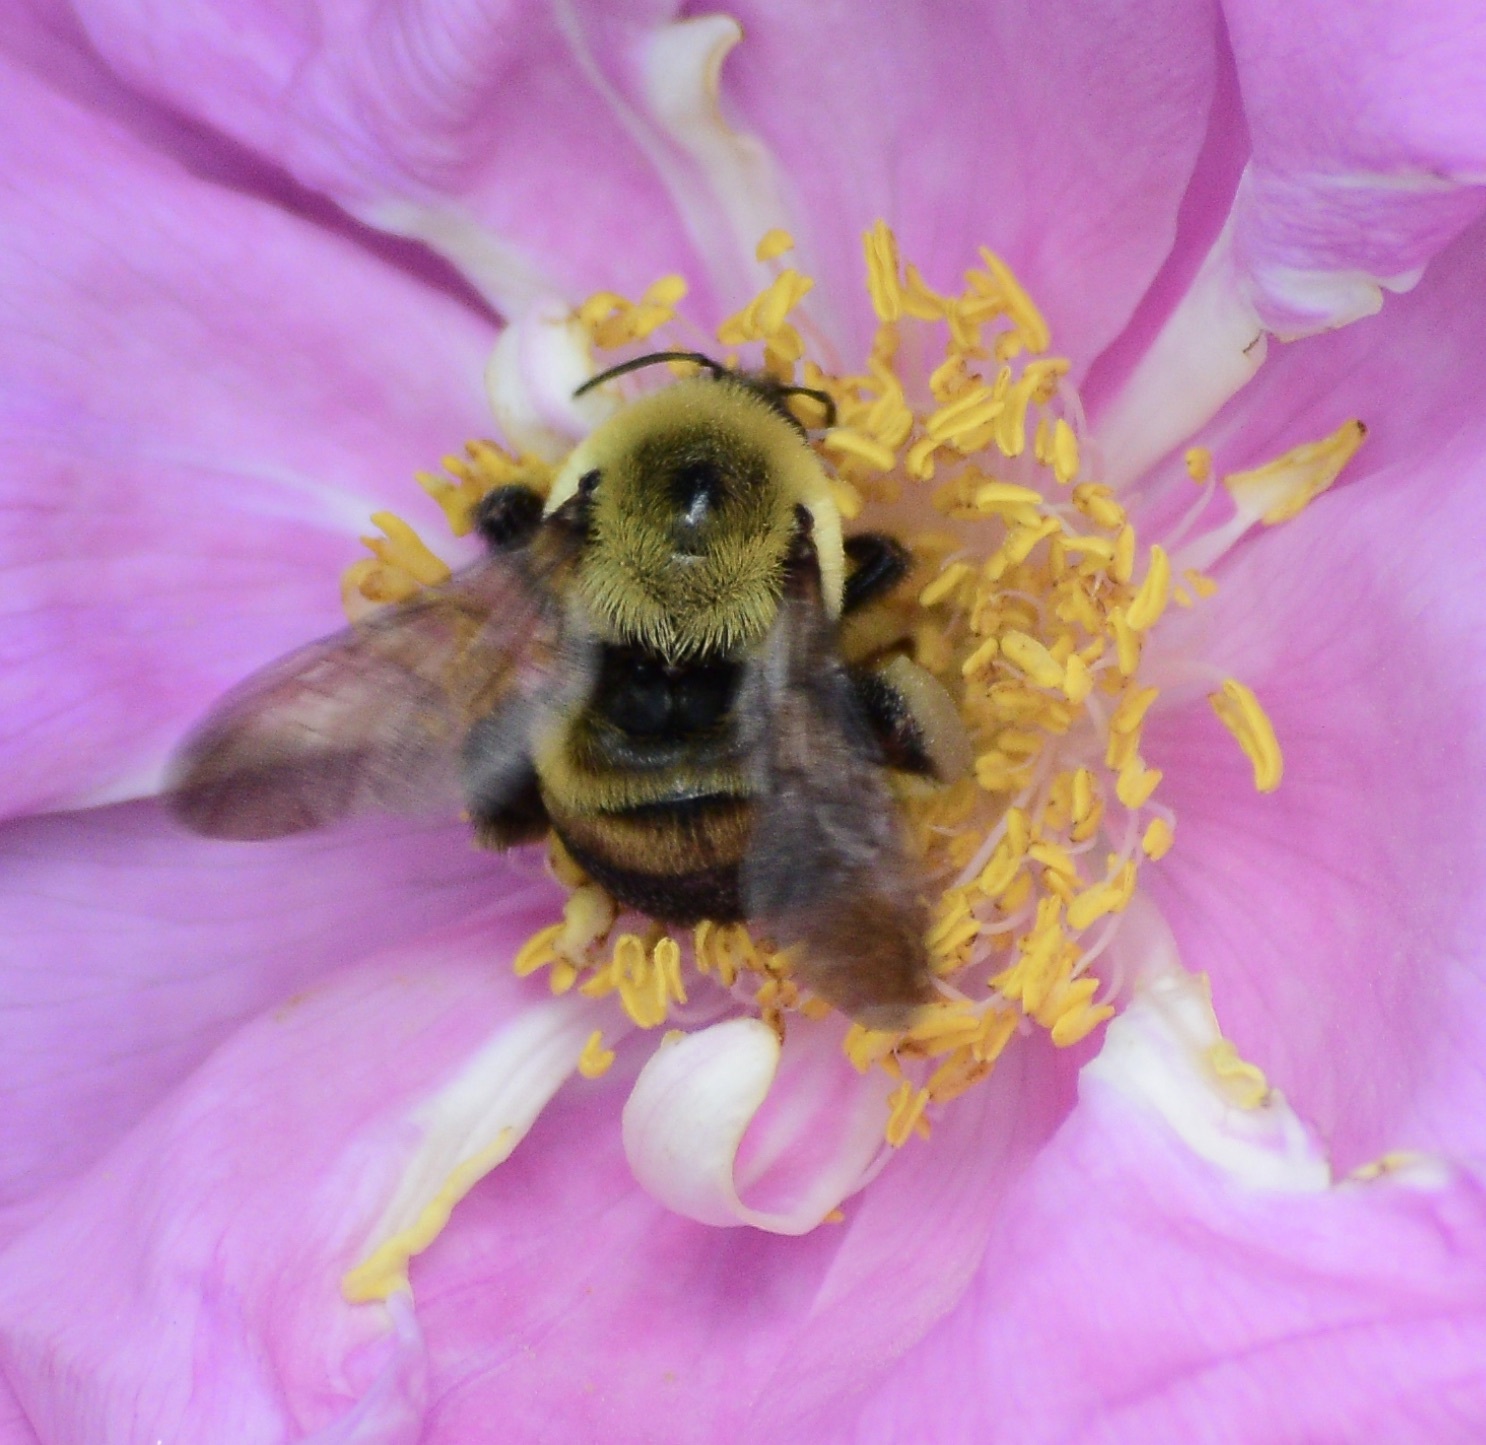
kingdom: Animalia
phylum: Arthropoda
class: Insecta
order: Hymenoptera
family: Apidae
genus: Bombus
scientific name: Bombus griseocollis
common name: Brown-belted bumble bee
